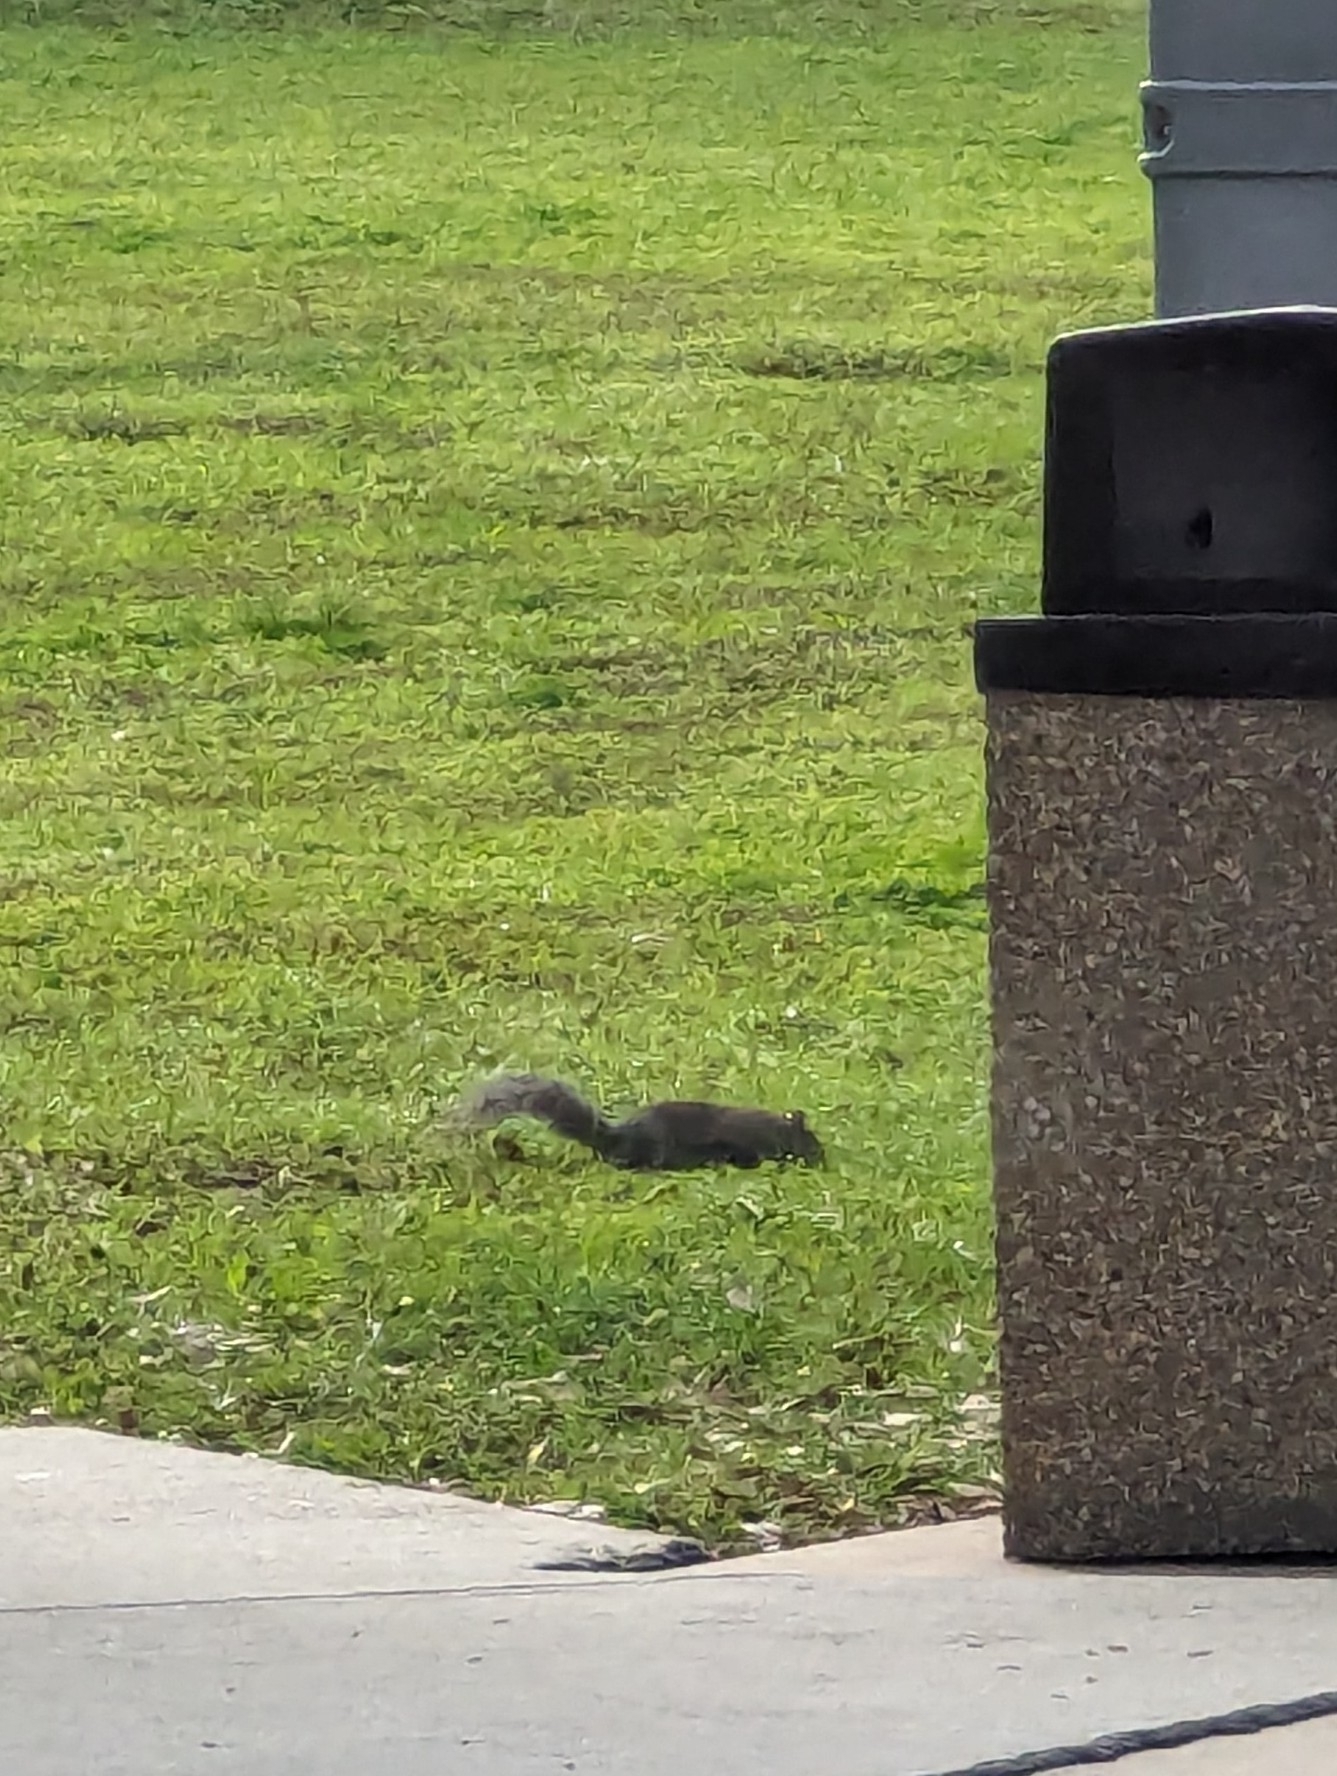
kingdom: Animalia
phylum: Chordata
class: Mammalia
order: Rodentia
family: Sciuridae
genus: Sciurus
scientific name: Sciurus carolinensis
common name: Eastern gray squirrel
